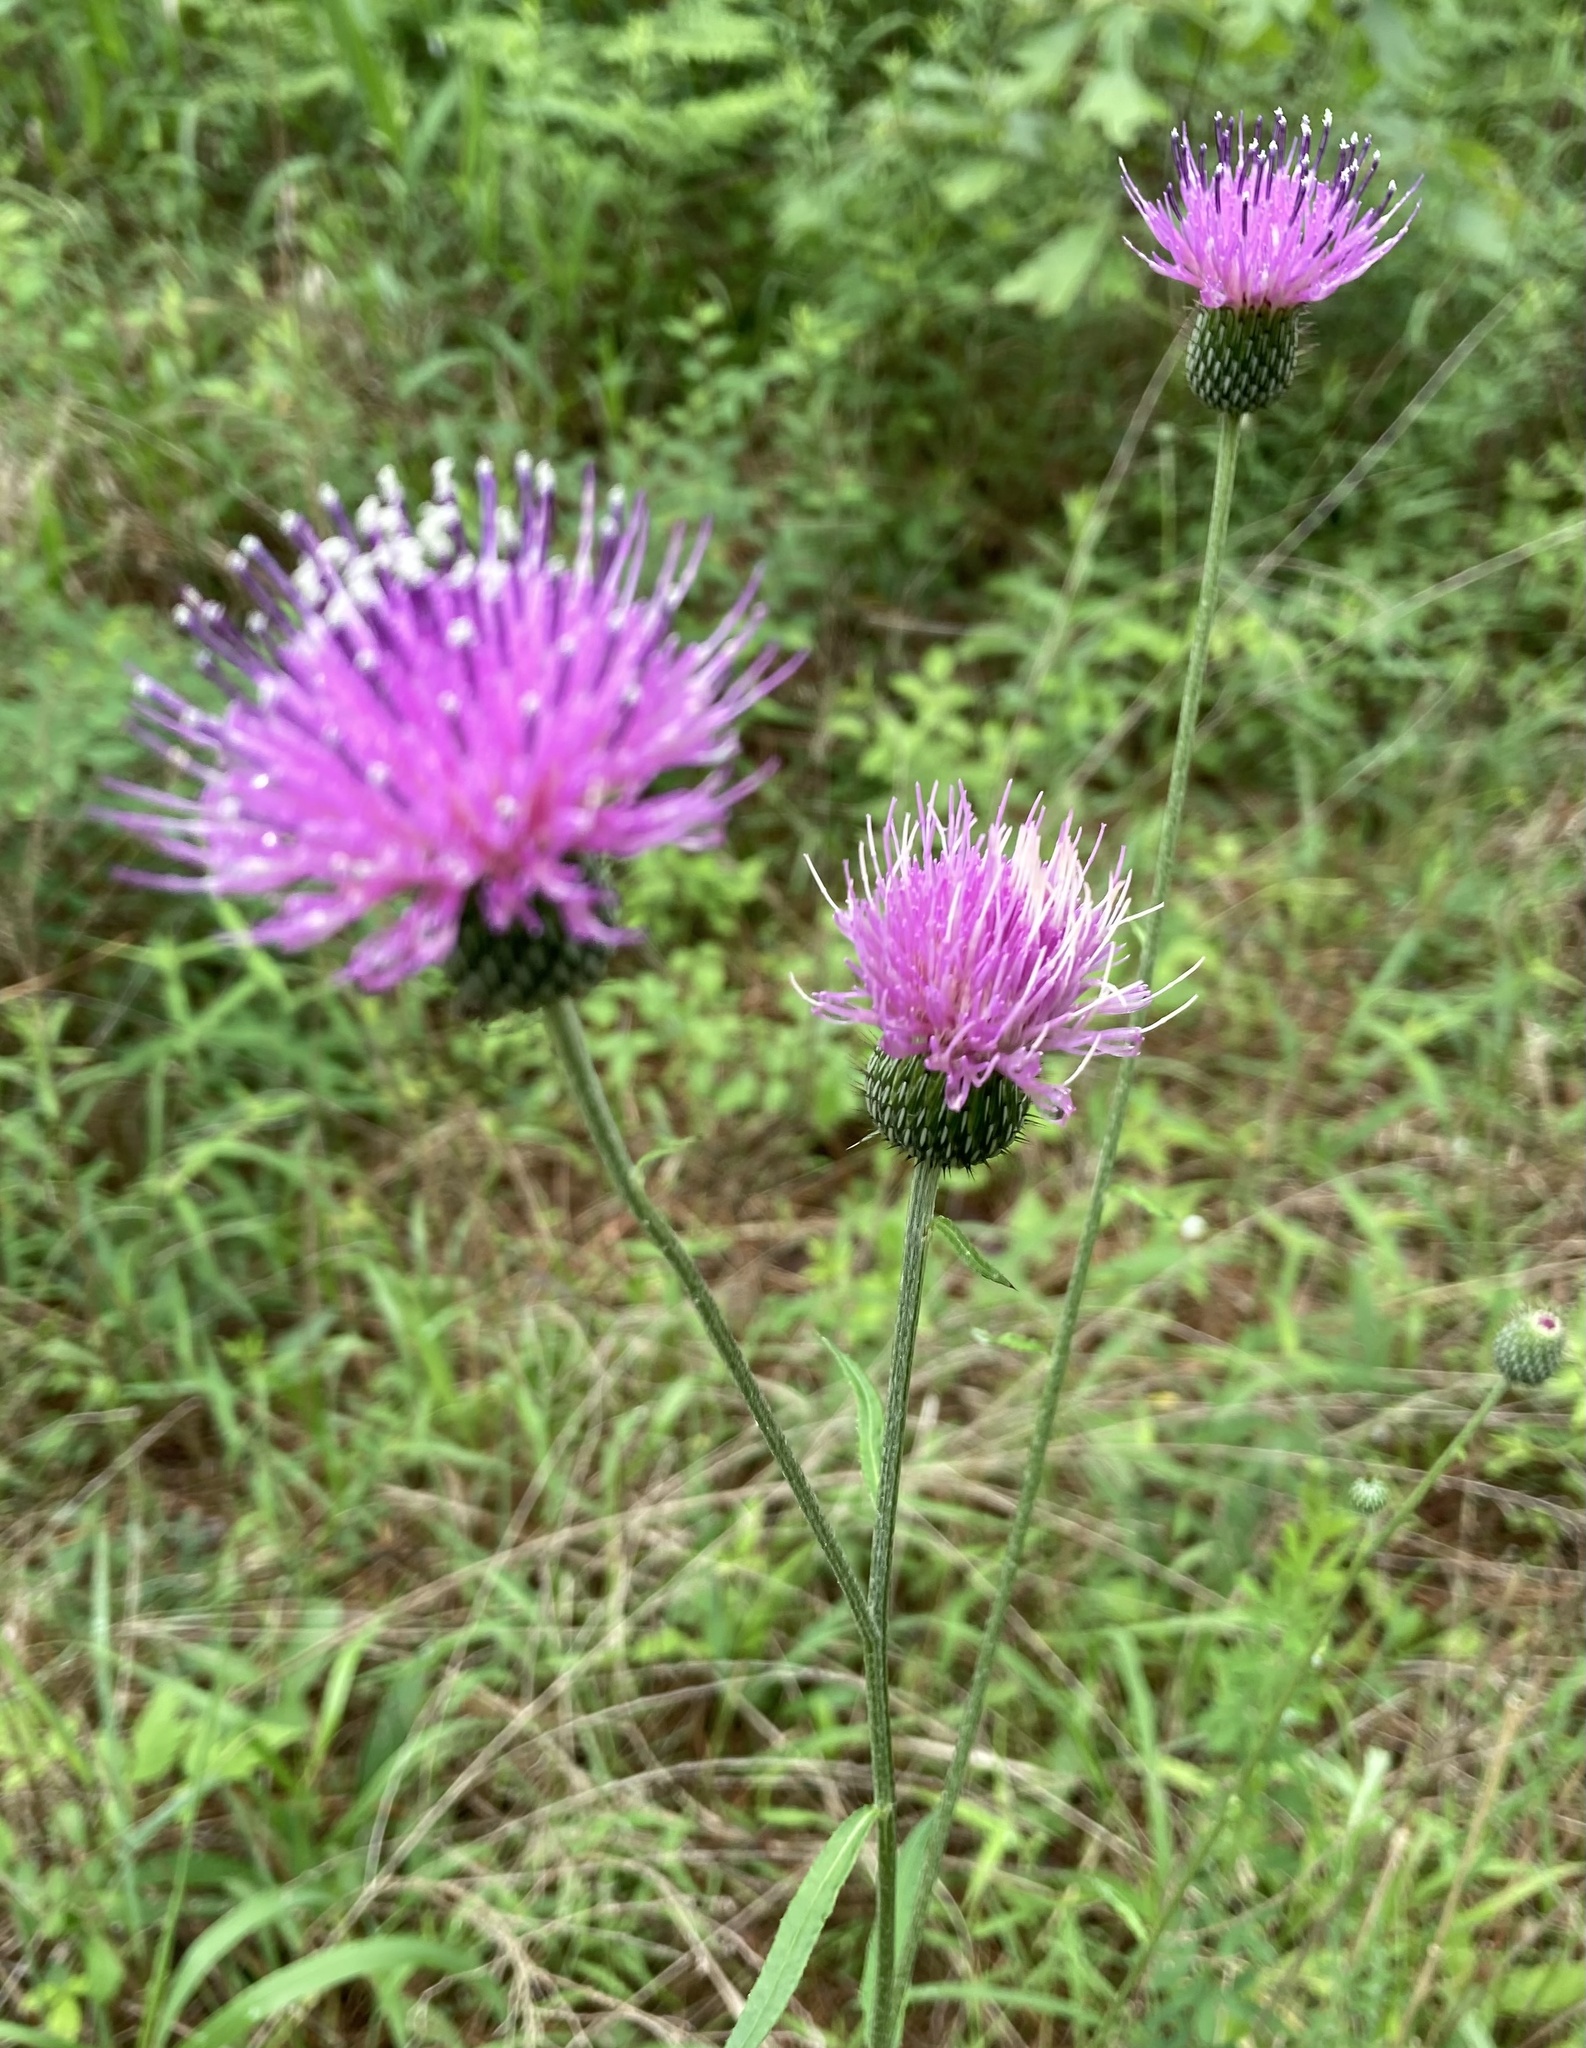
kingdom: Plantae
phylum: Tracheophyta
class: Magnoliopsida
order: Asterales
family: Asteraceae
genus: Cirsium
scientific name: Cirsium carolinianum
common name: Carolina thistle
